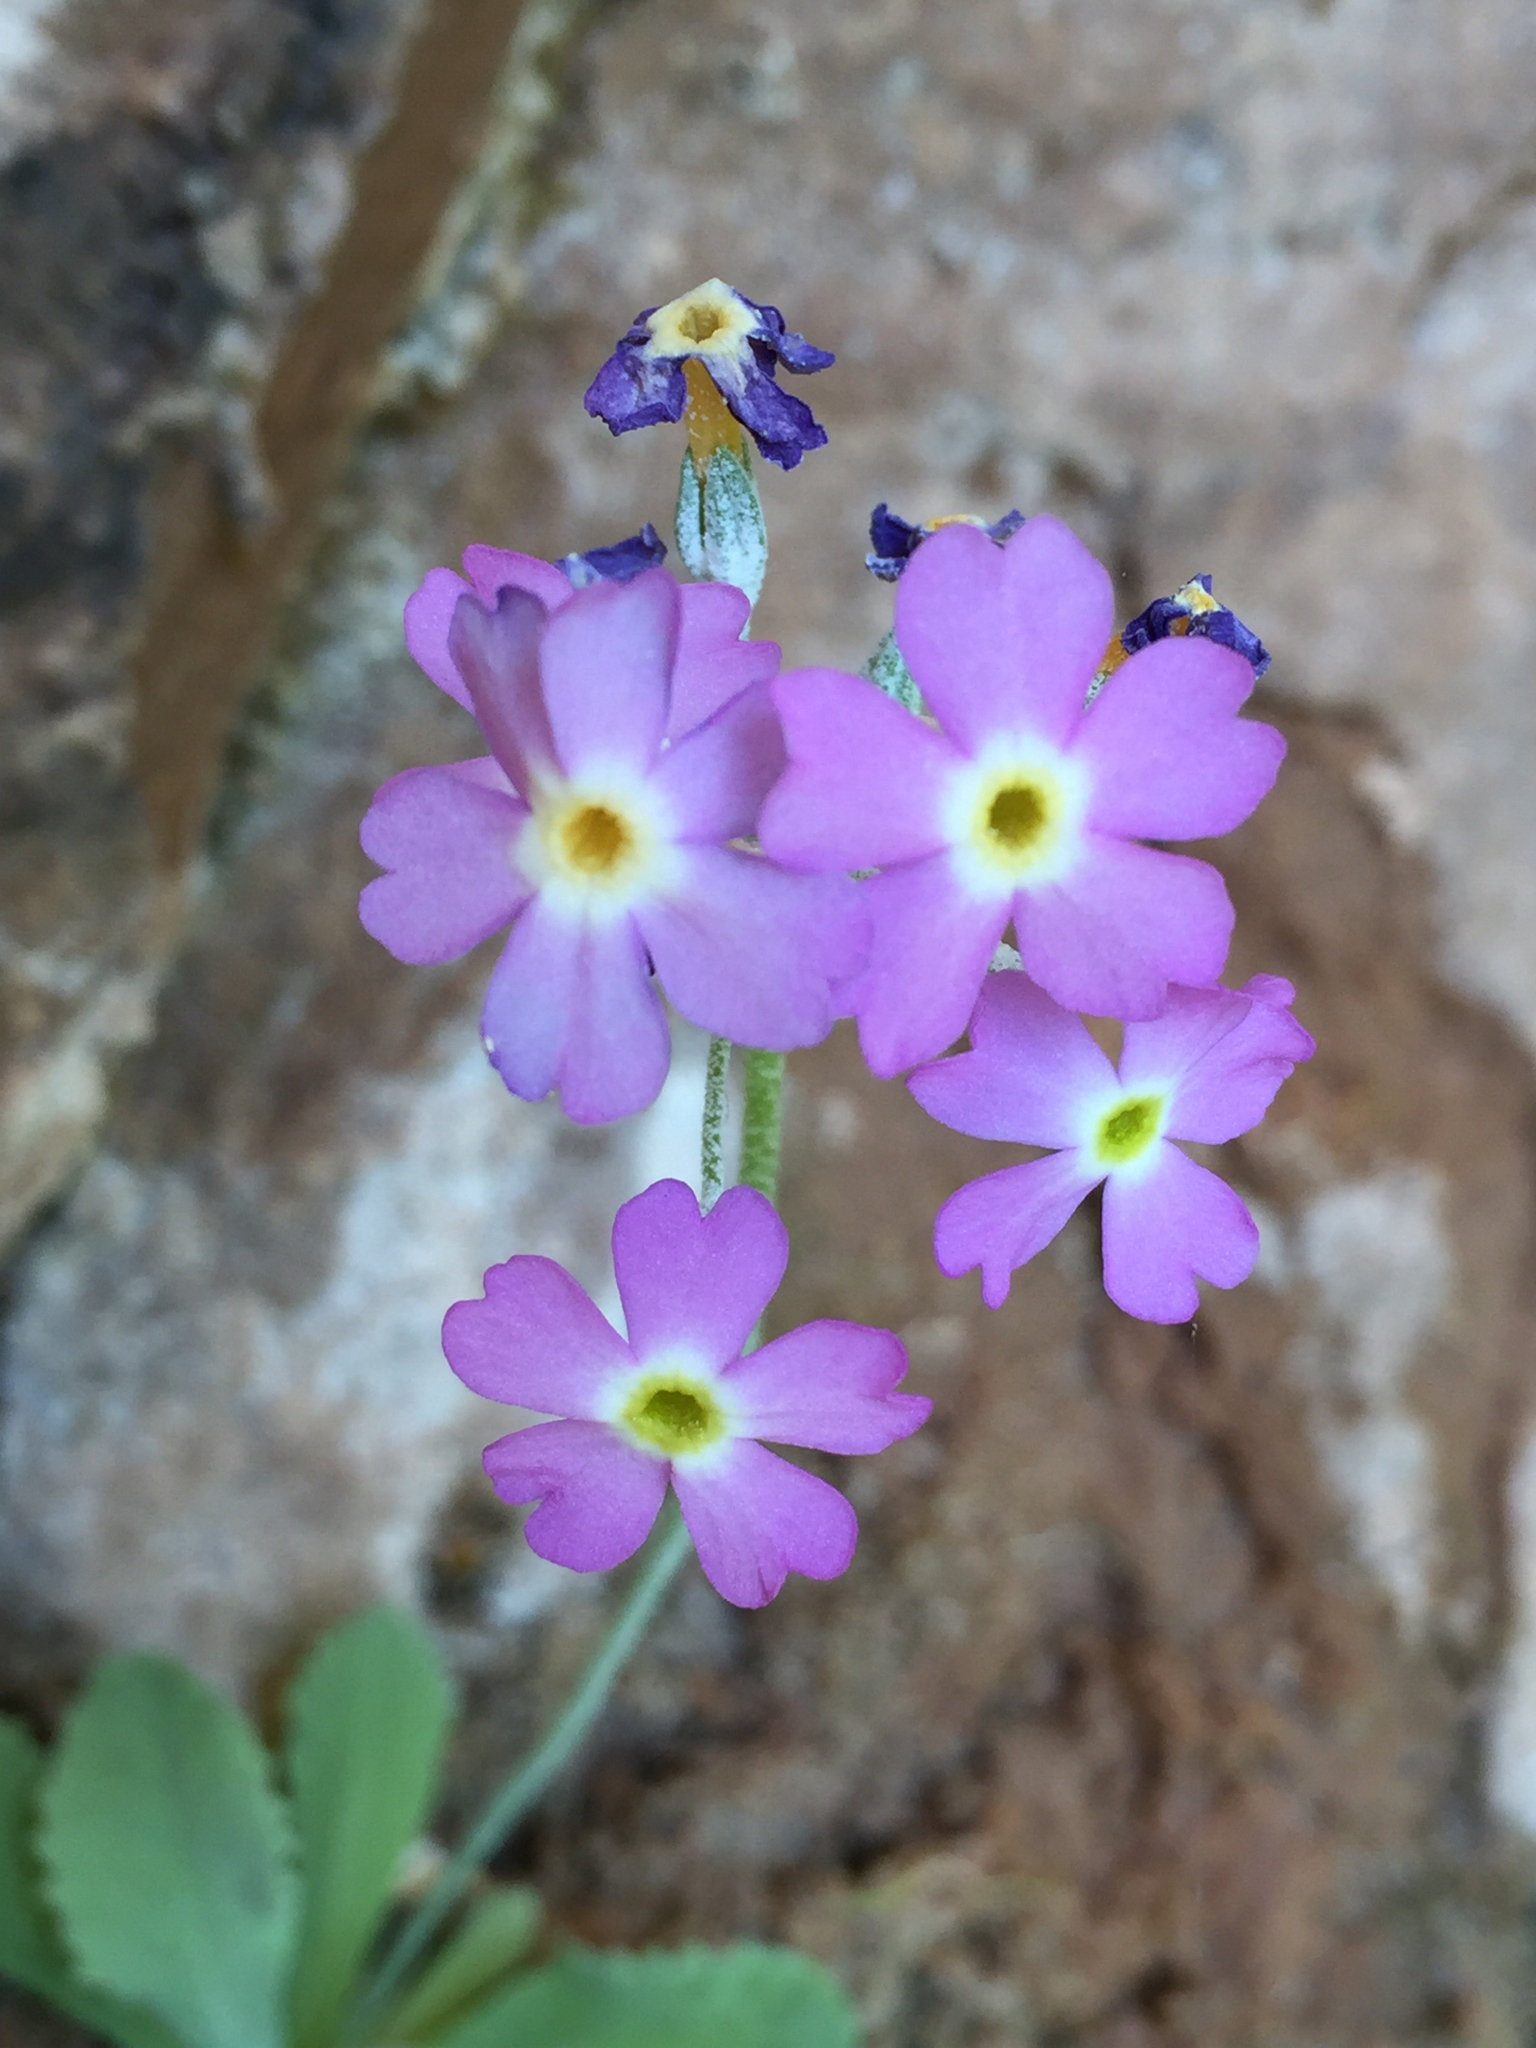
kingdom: Plantae
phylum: Tracheophyta
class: Magnoliopsida
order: Ericales
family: Primulaceae
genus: Primula
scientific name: Primula specuicola
